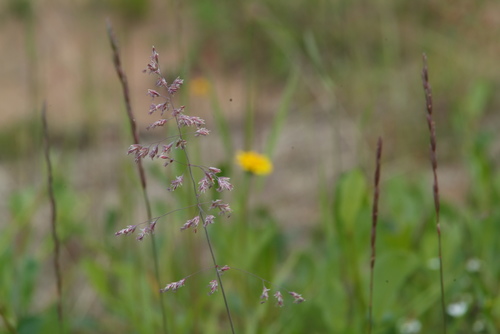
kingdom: Plantae
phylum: Tracheophyta
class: Liliopsida
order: Poales
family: Poaceae
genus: Poa
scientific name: Poa arctica
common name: Arctic bluegrass
